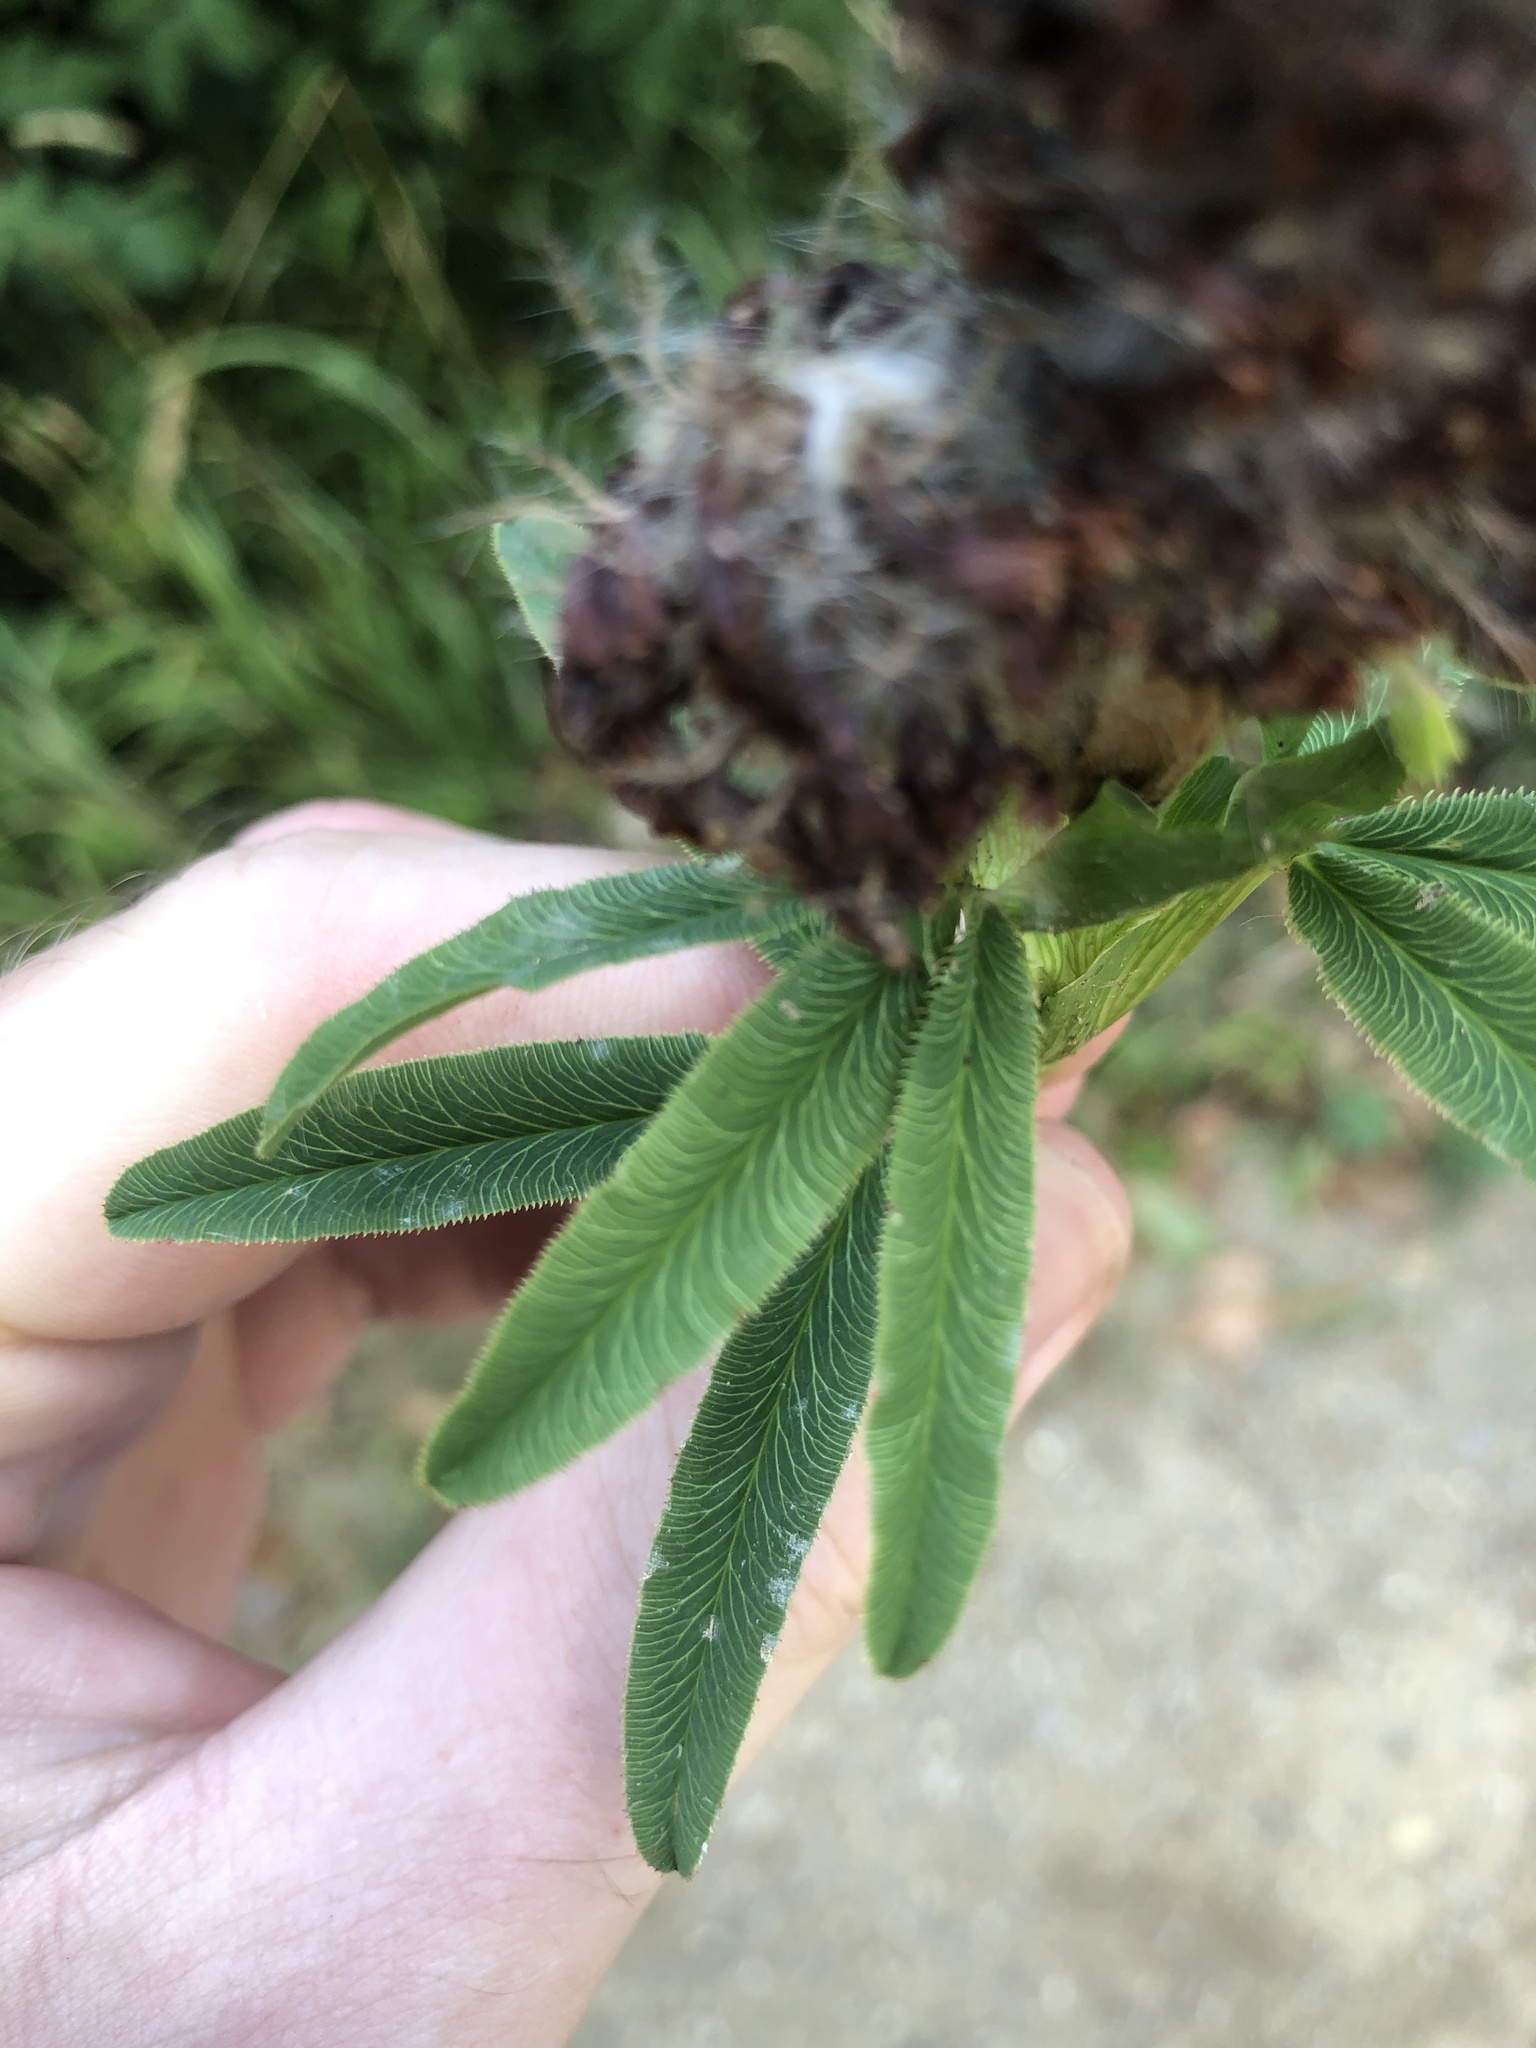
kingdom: Plantae
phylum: Tracheophyta
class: Magnoliopsida
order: Fabales
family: Fabaceae
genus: Trifolium
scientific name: Trifolium rubens
